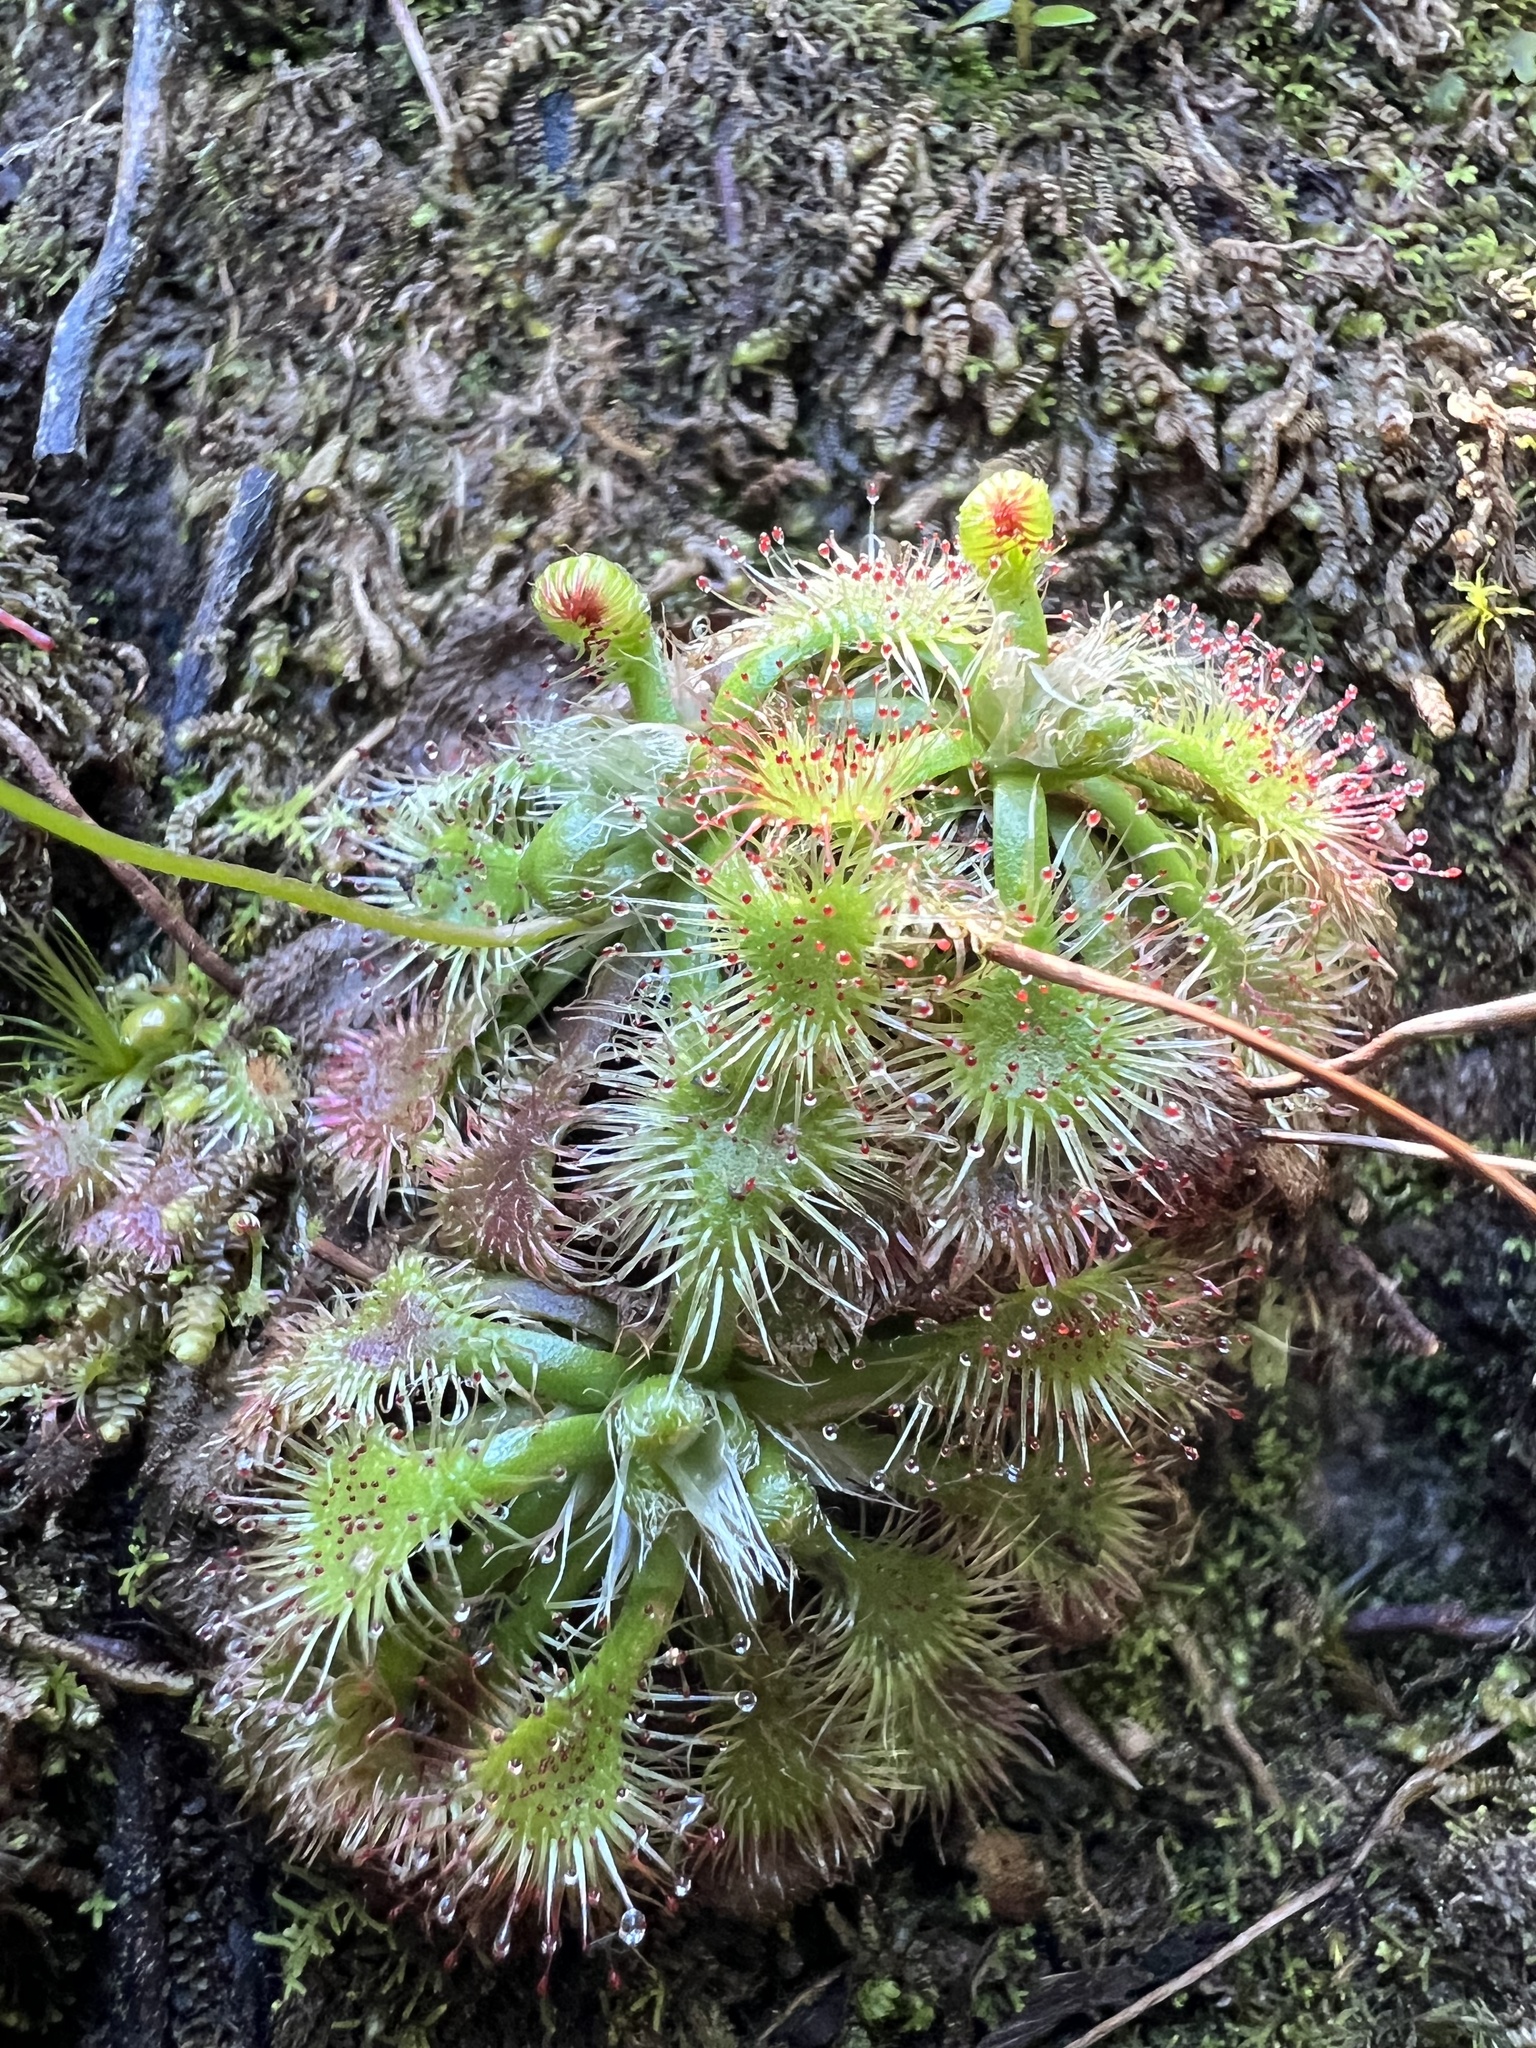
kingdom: Plantae
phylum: Tracheophyta
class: Magnoliopsida
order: Caryophyllales
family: Droseraceae
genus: Drosera
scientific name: Drosera spatulata
